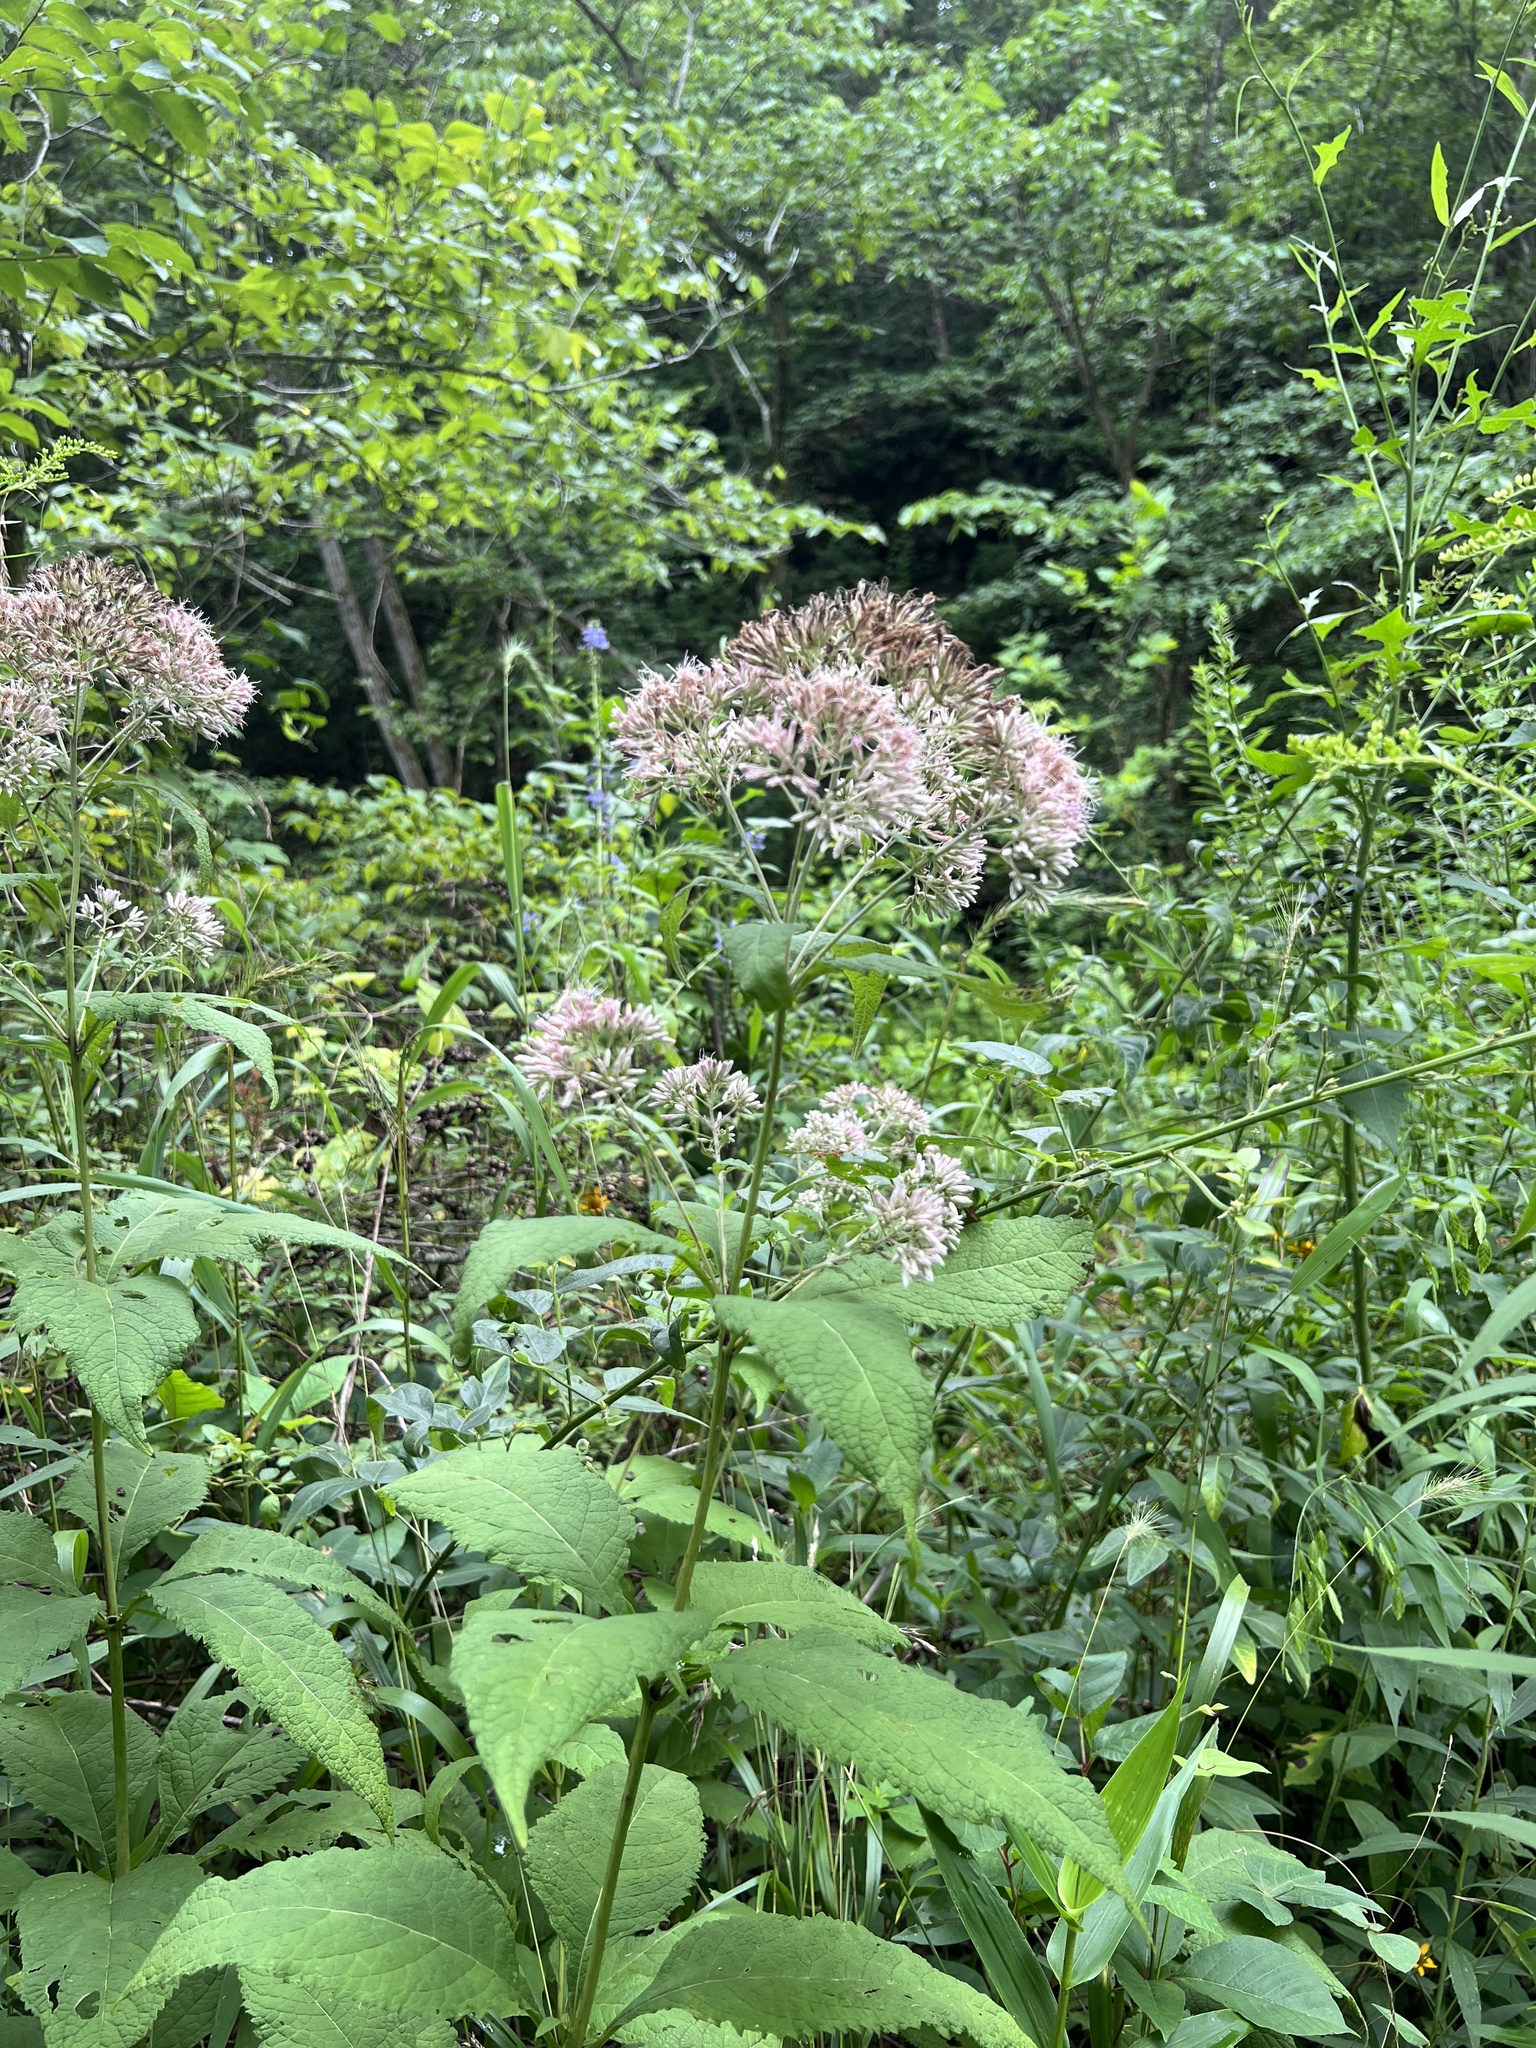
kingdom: Plantae
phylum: Tracheophyta
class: Magnoliopsida
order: Asterales
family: Asteraceae
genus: Eutrochium
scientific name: Eutrochium purpureum
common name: Gravelroot
